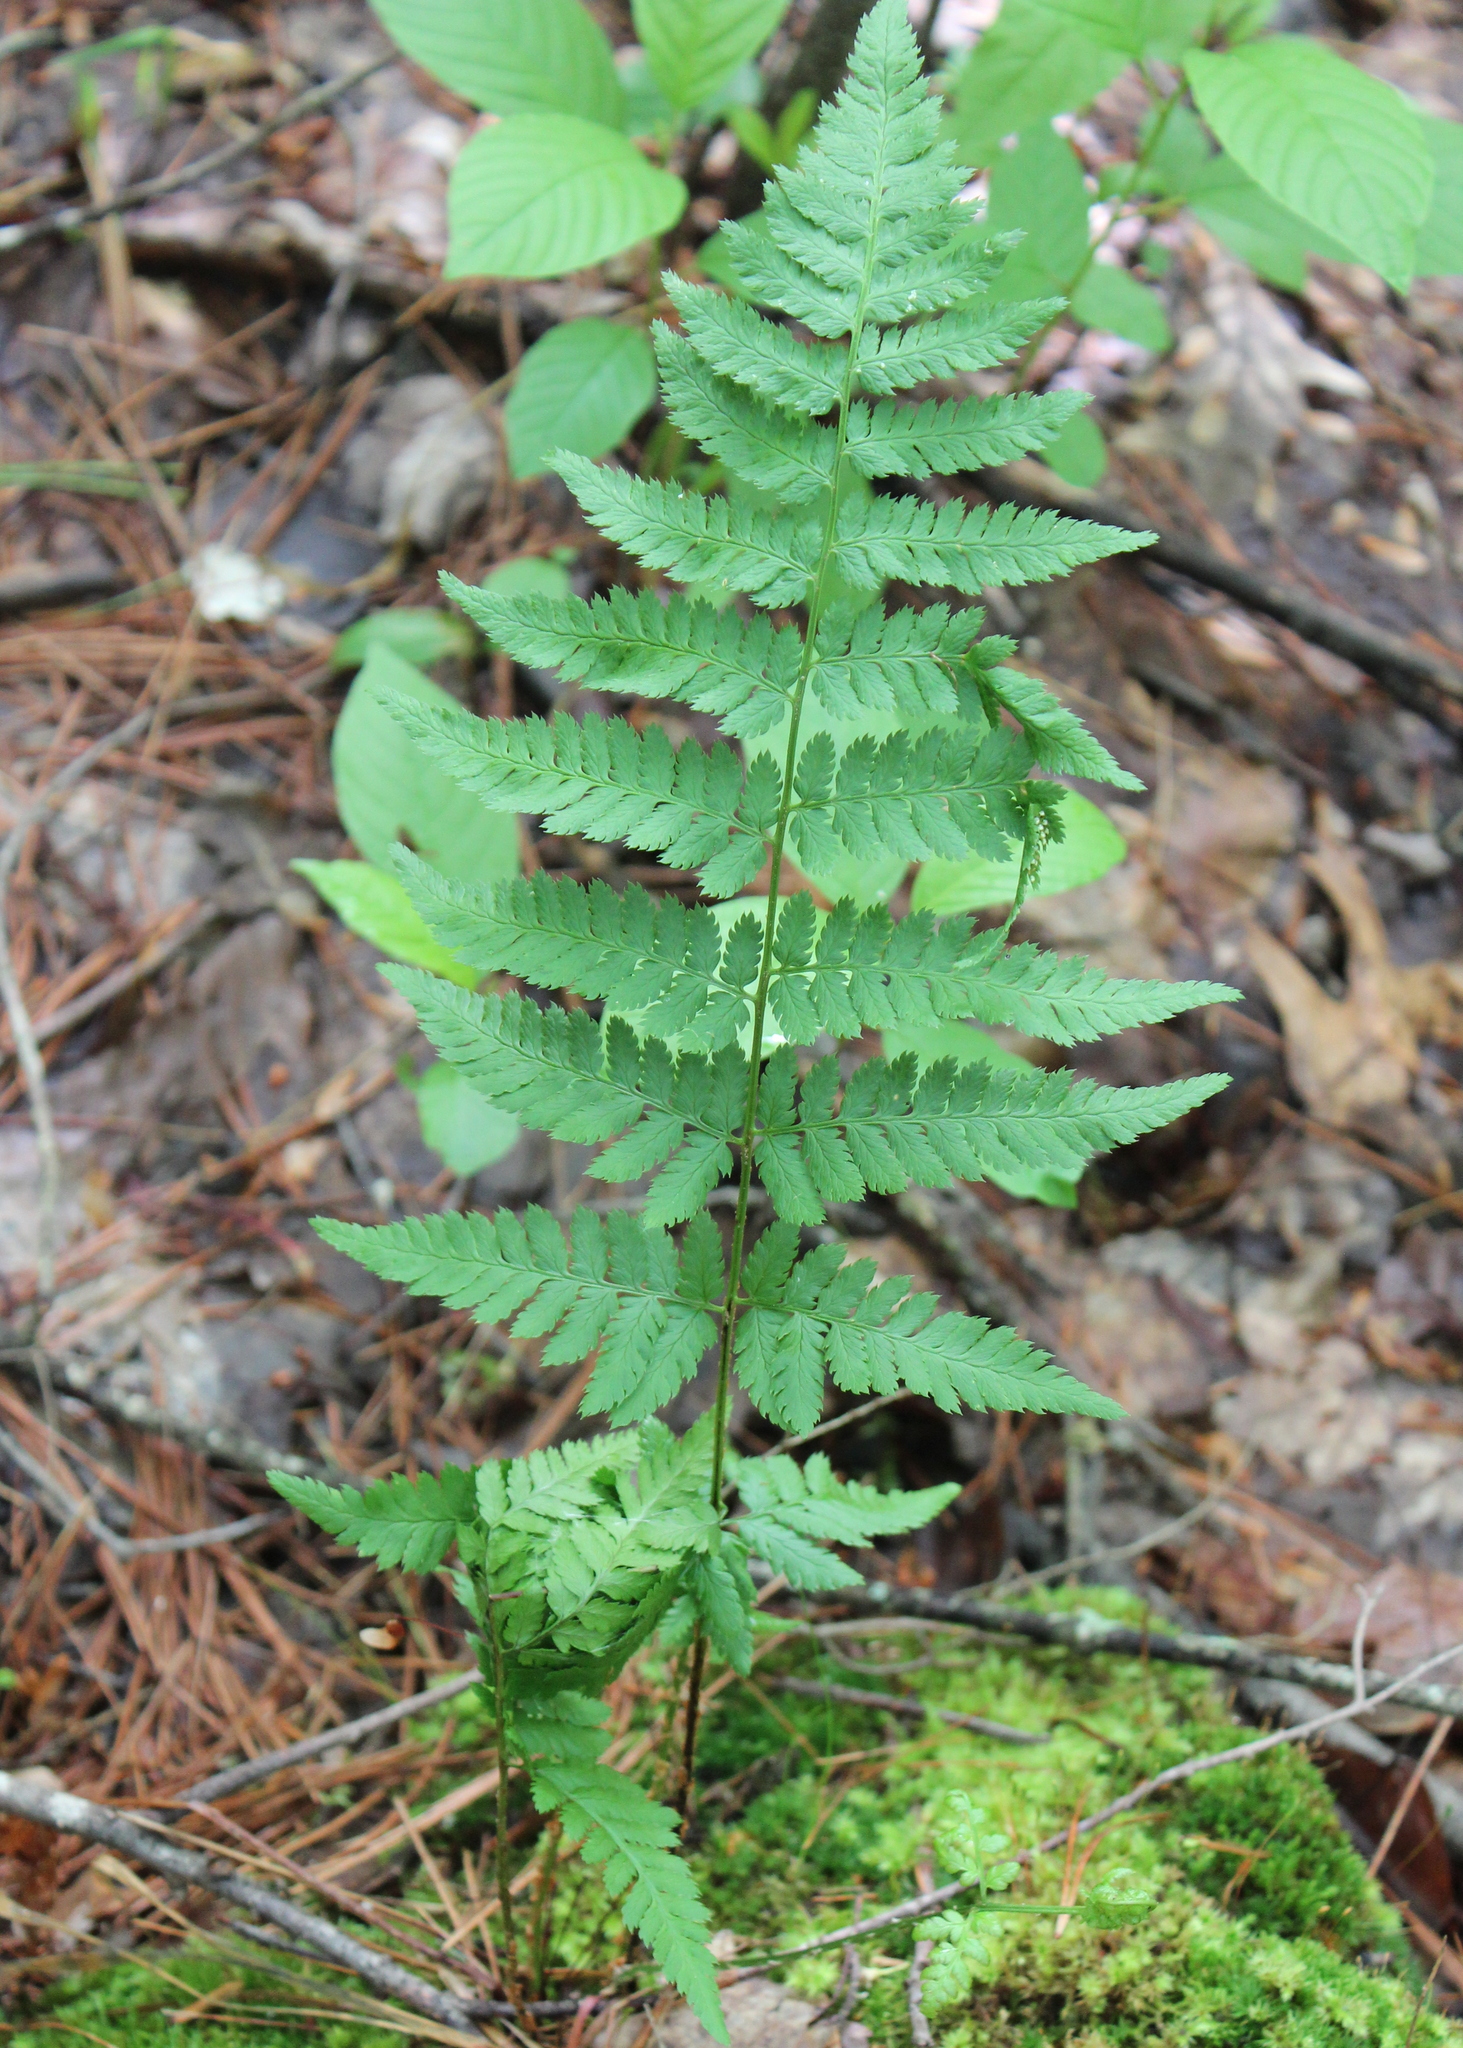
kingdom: Plantae
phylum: Tracheophyta
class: Polypodiopsida
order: Polypodiales
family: Dryopteridaceae
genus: Dryopteris
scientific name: Dryopteris carthusiana
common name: Narrow buckler-fern
